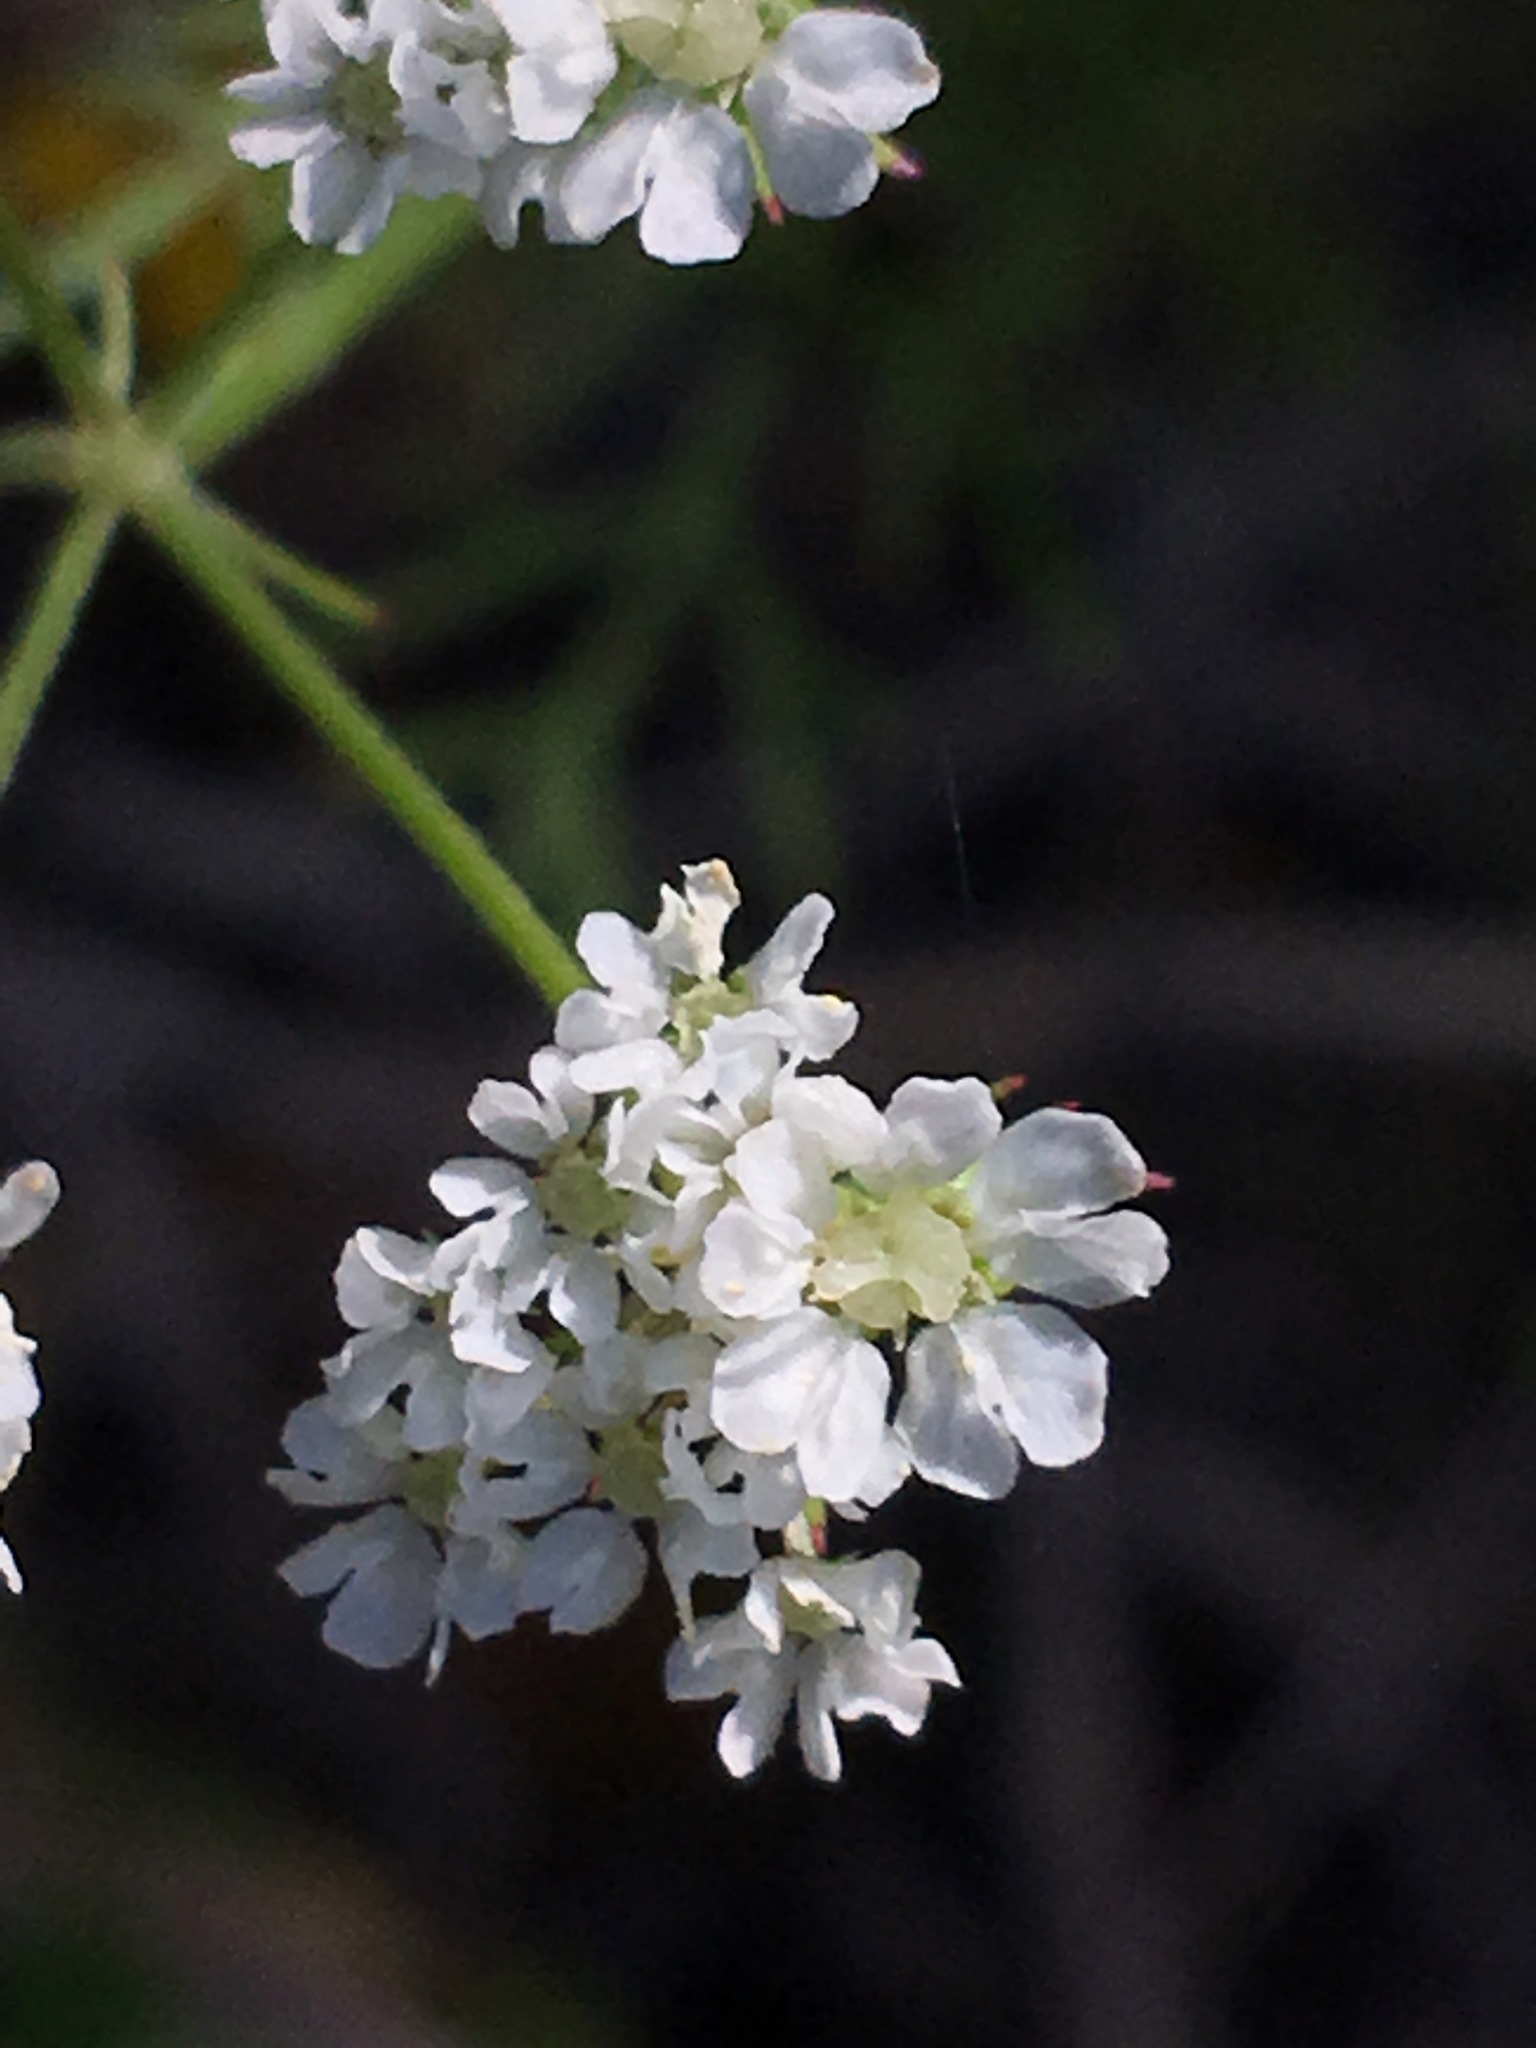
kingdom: Plantae
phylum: Tracheophyta
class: Magnoliopsida
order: Apiales
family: Apiaceae
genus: Atrema
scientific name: Atrema americanum
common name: Prairie-bishop
